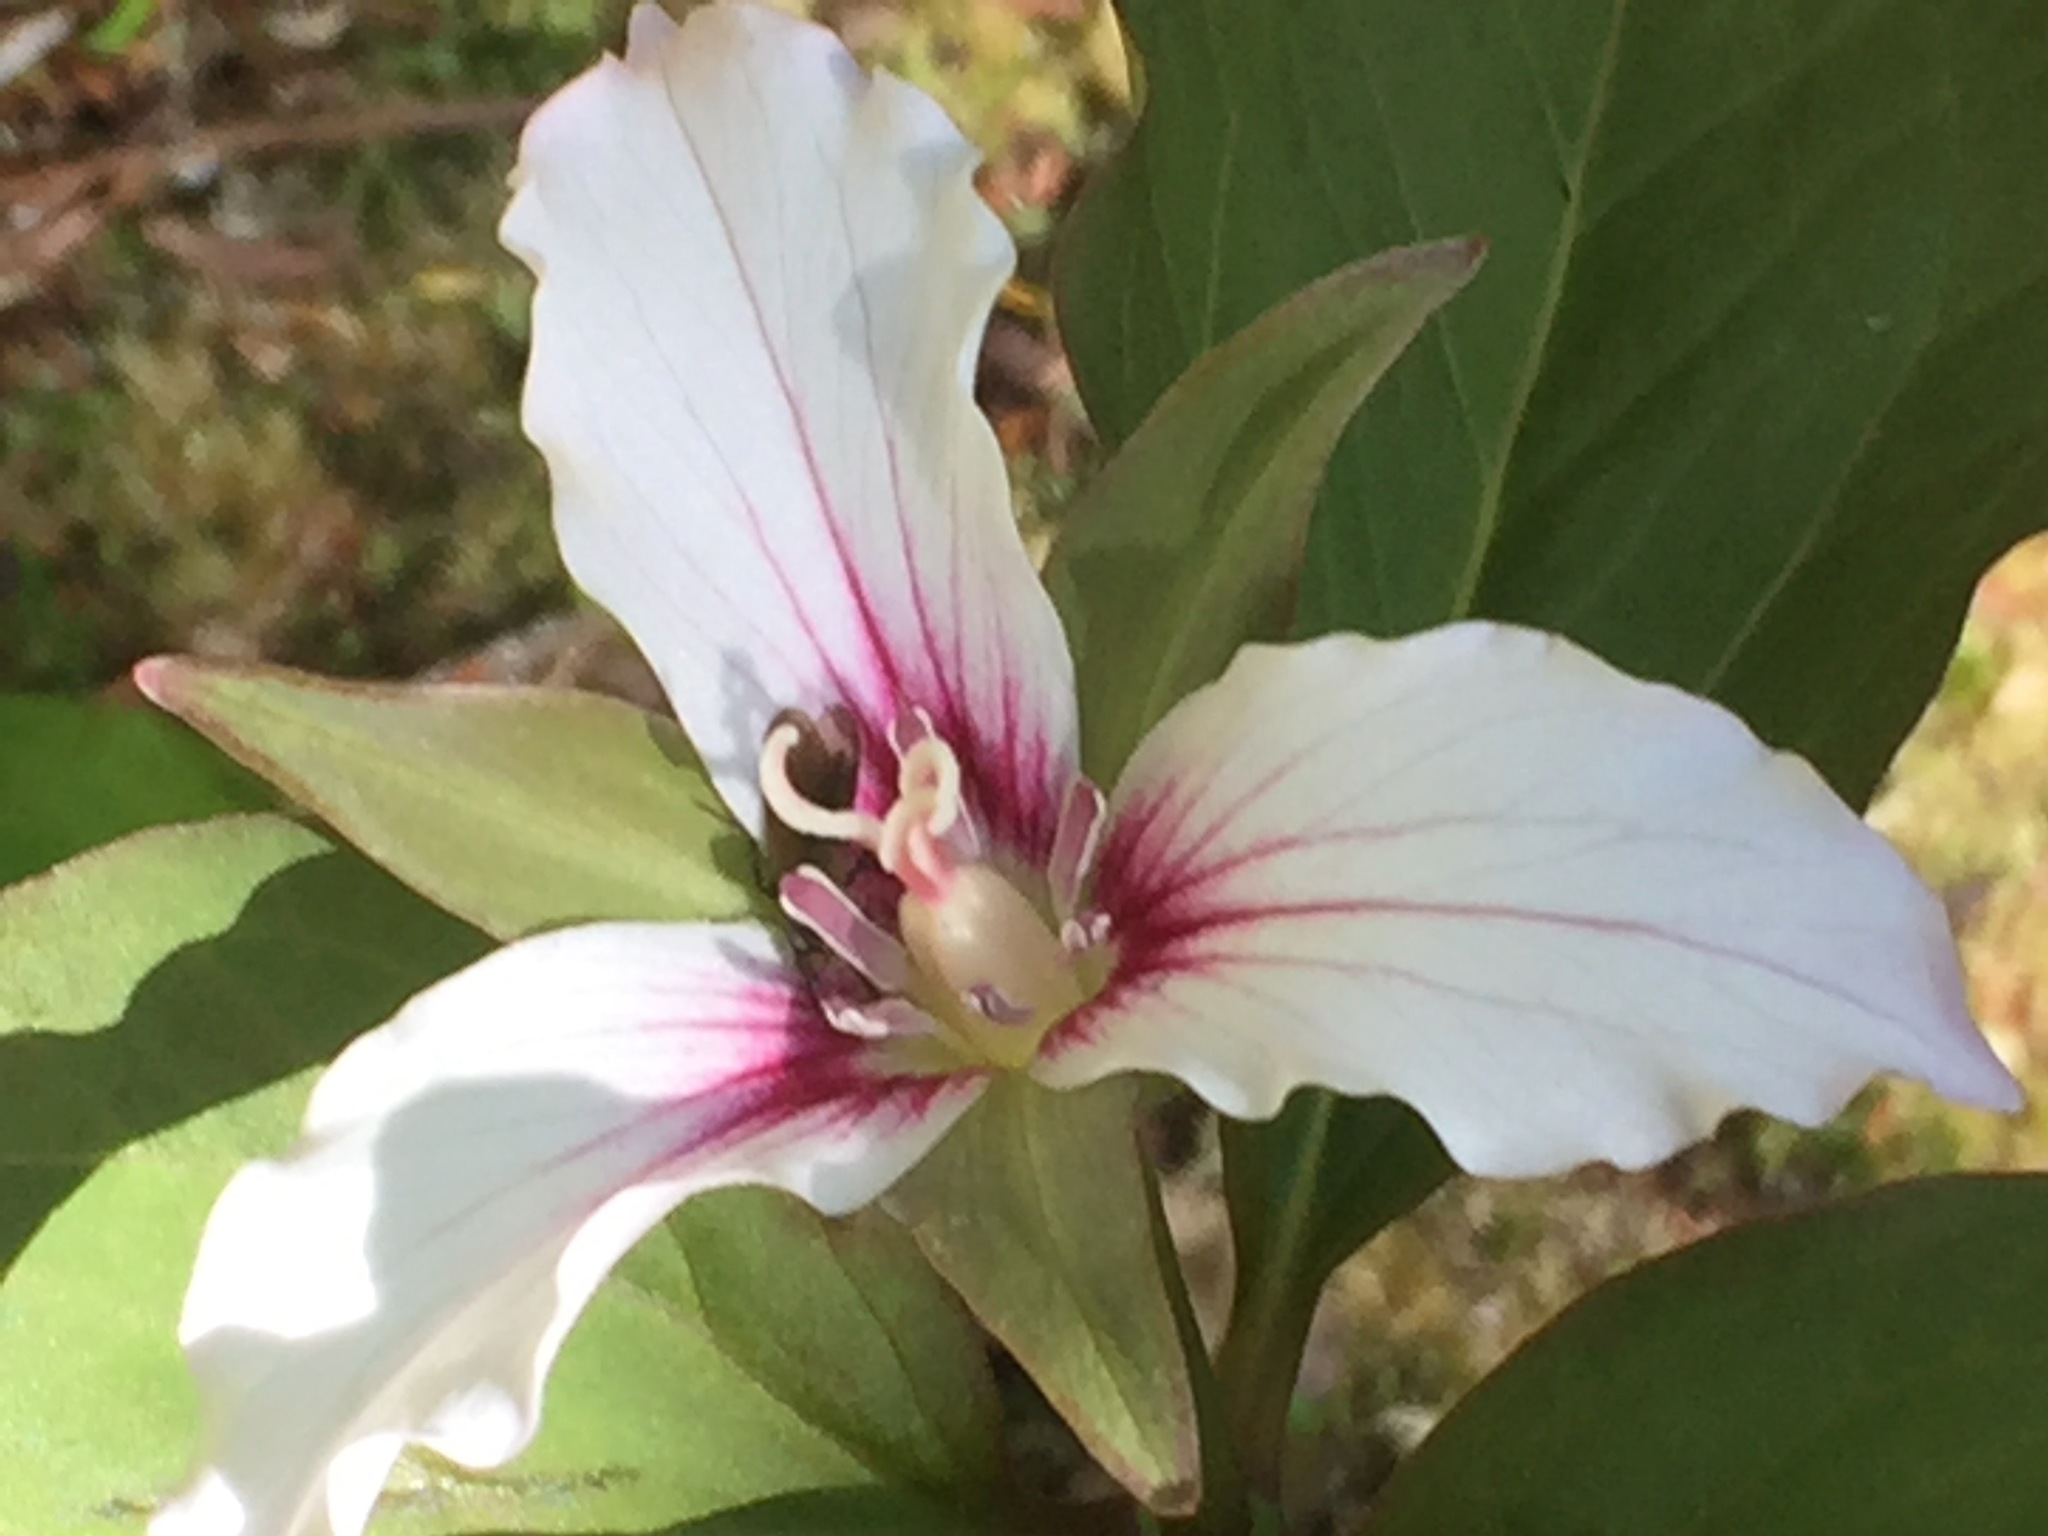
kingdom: Plantae
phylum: Tracheophyta
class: Liliopsida
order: Liliales
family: Melanthiaceae
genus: Trillium
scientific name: Trillium undulatum
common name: Paint trillium
